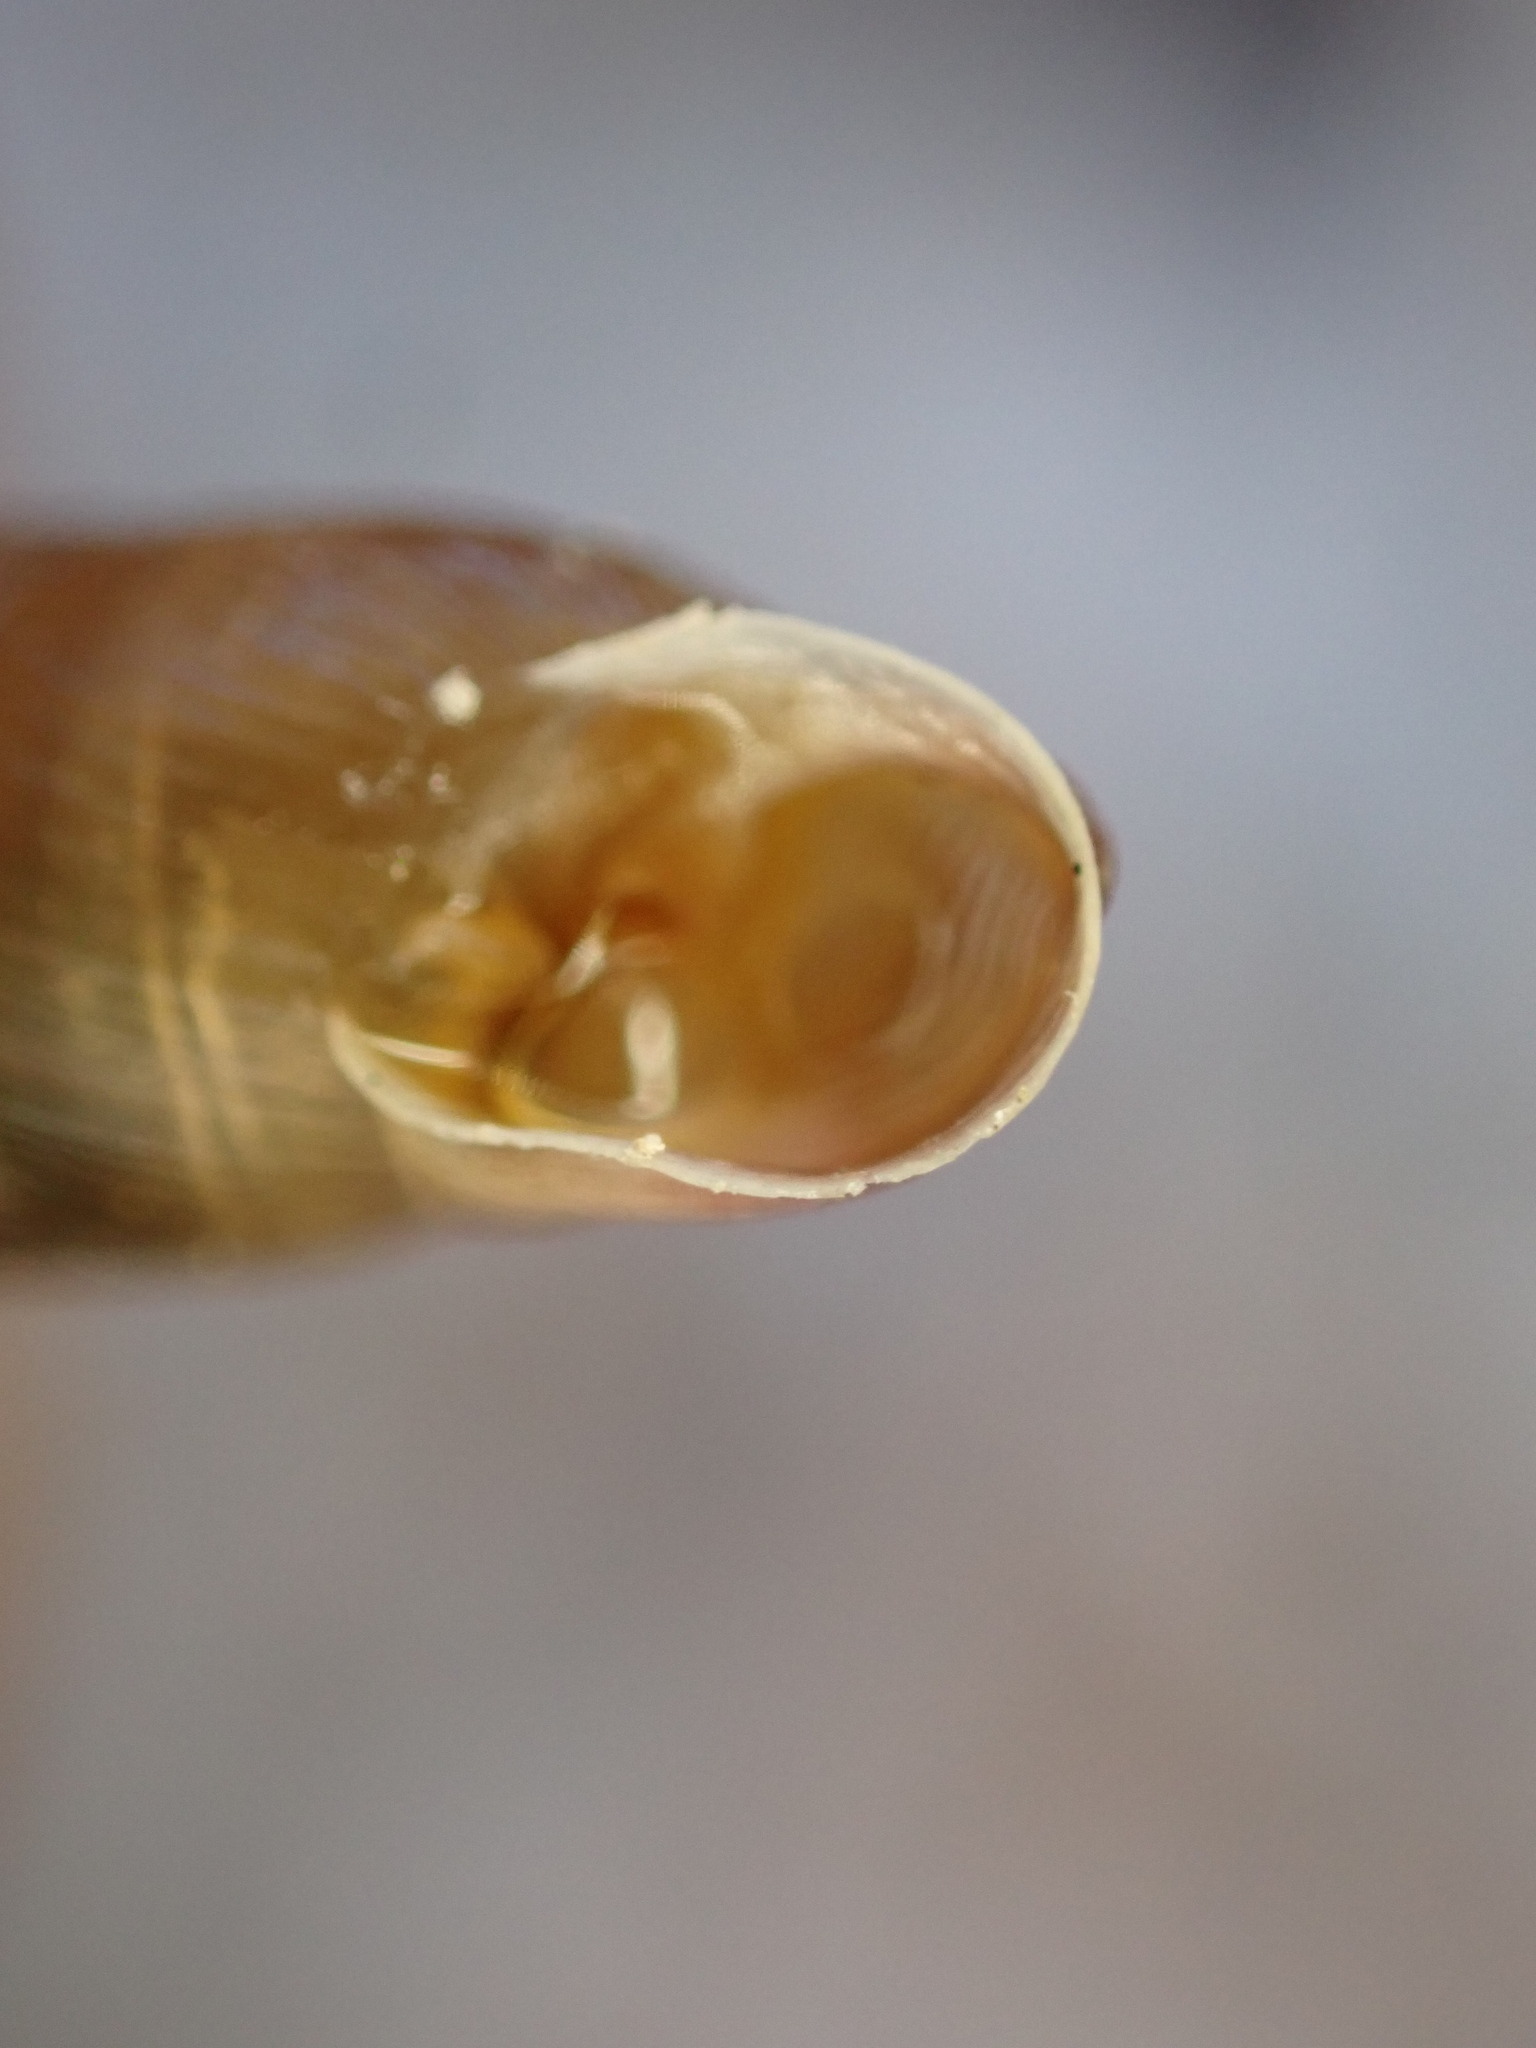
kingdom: Animalia
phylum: Mollusca
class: Gastropoda
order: Stylommatophora
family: Clausiliidae
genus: Papillifera
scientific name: Papillifera solida
